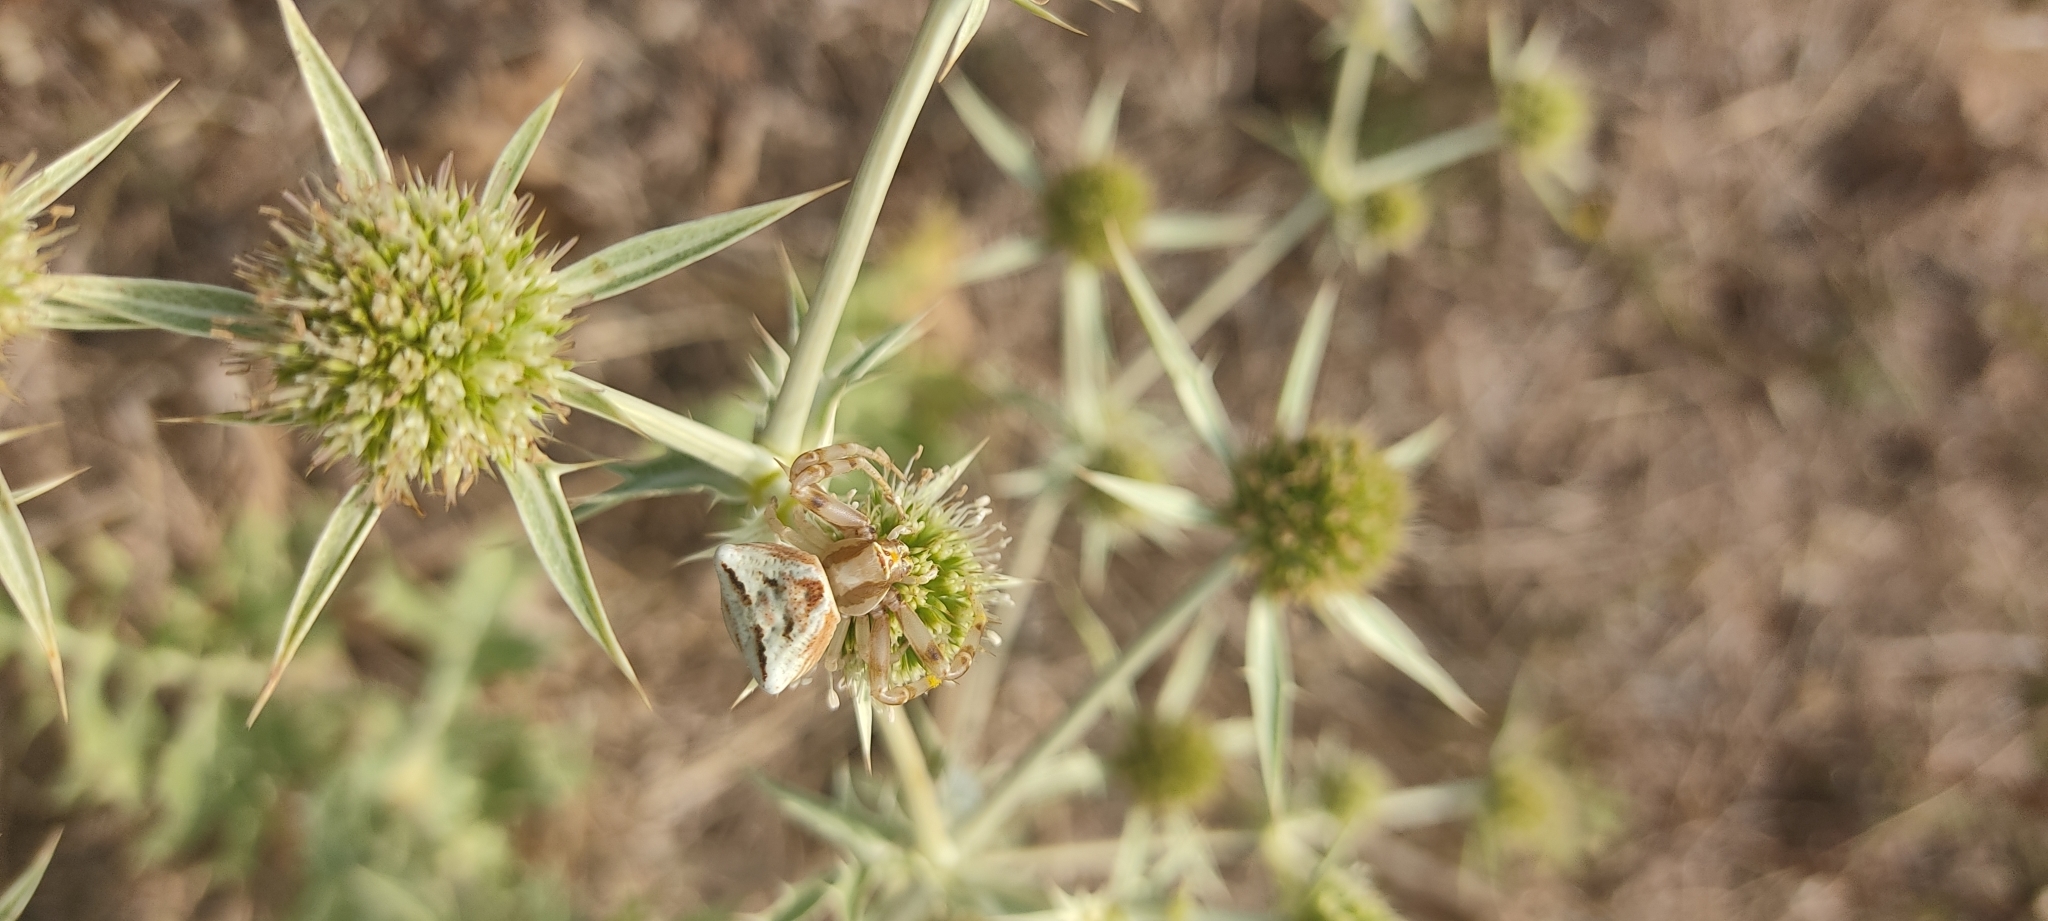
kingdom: Animalia
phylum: Arthropoda
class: Arachnida
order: Araneae
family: Thomisidae
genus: Thomisus
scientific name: Thomisus onustus
